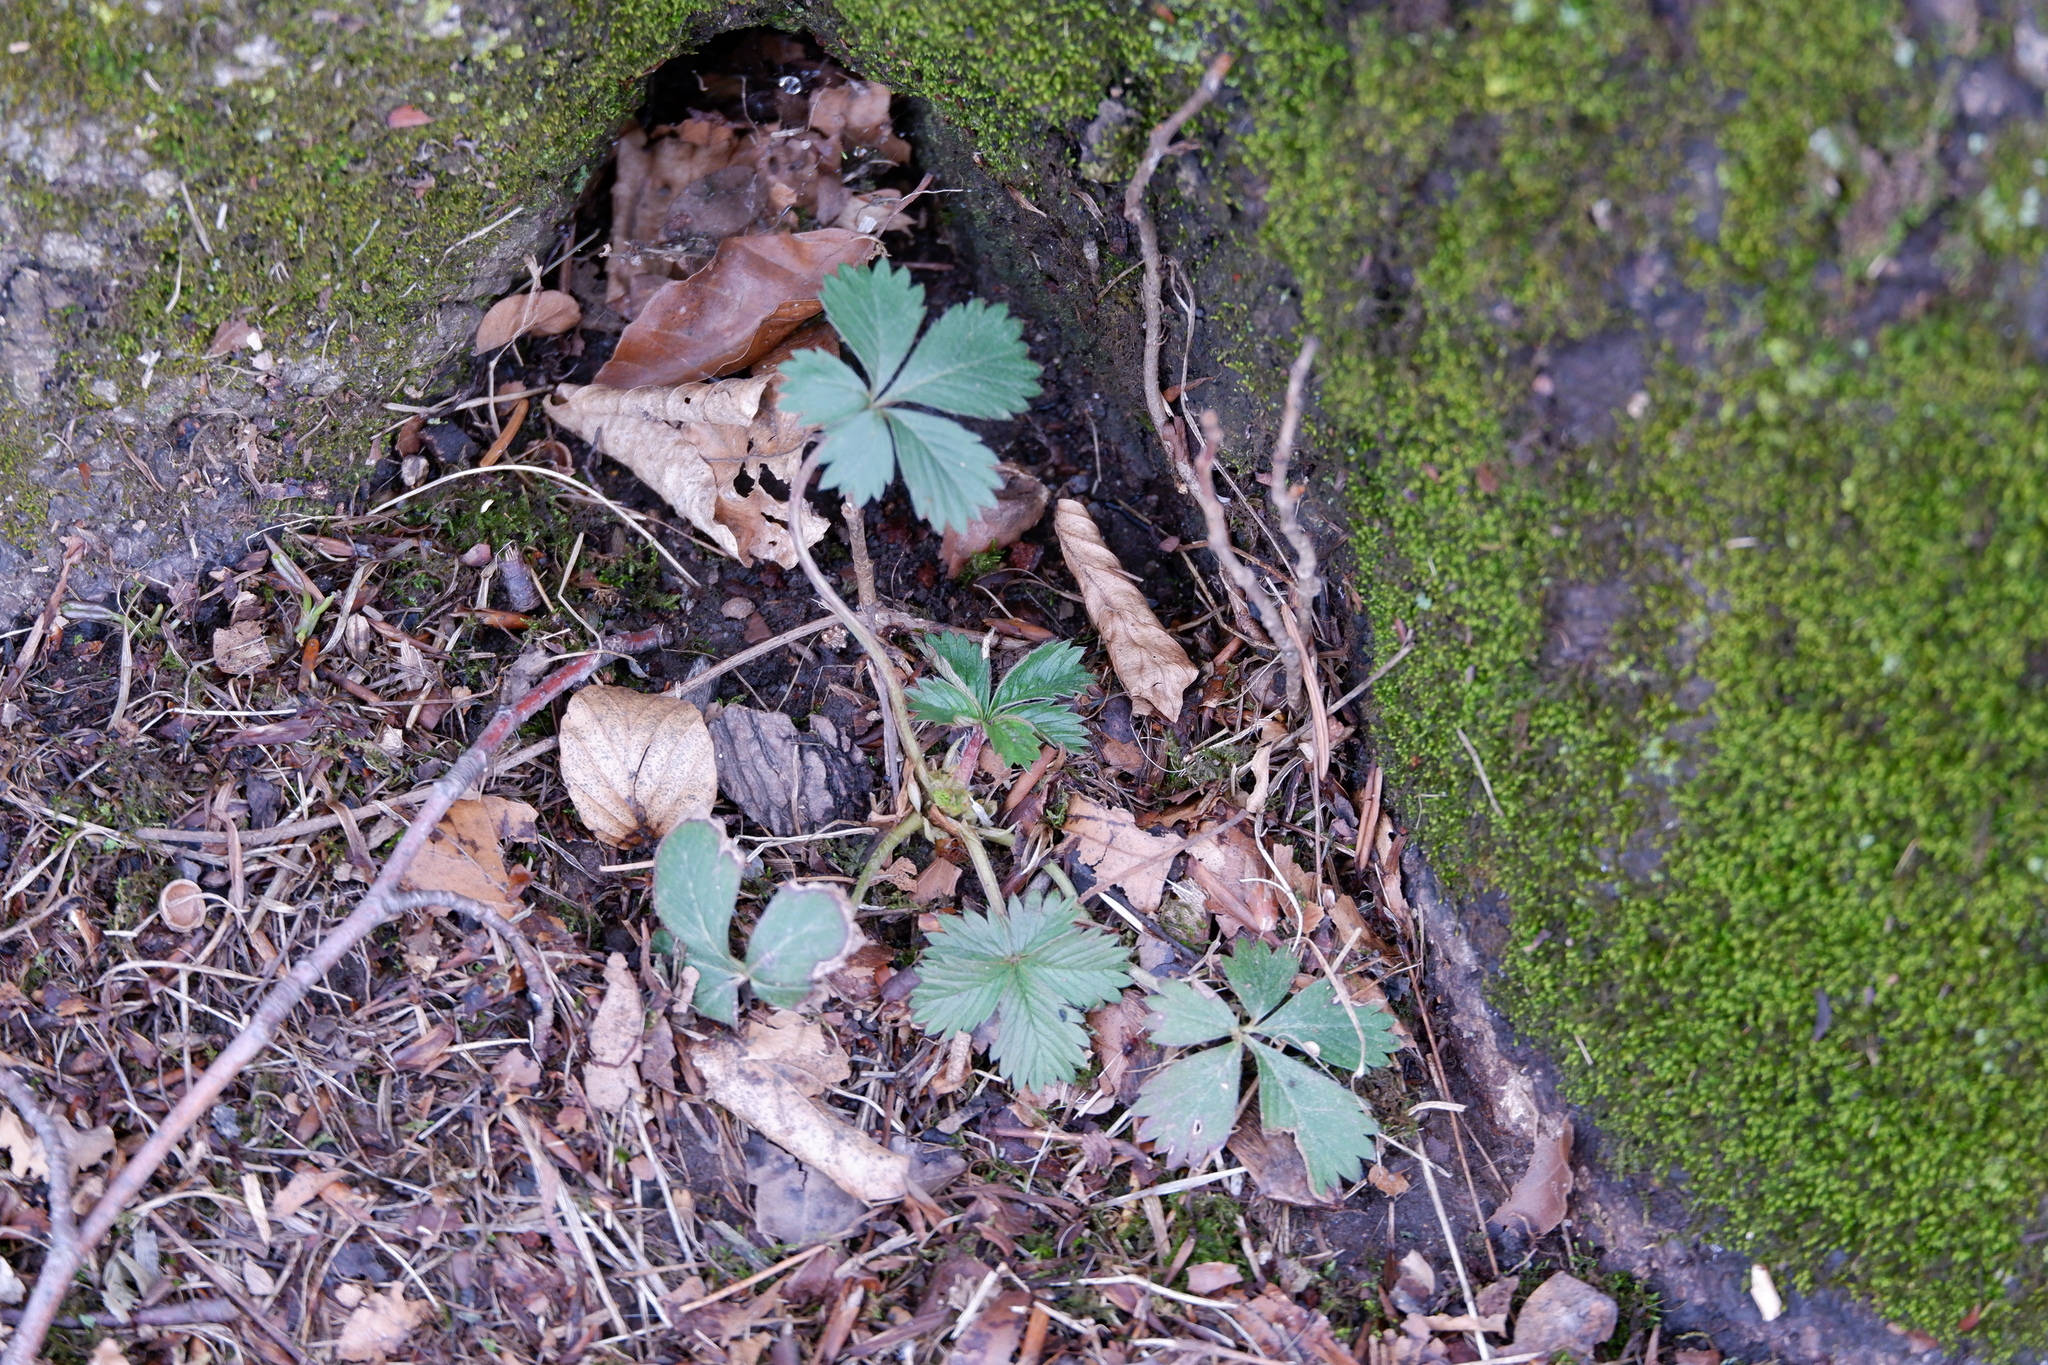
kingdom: Plantae
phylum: Tracheophyta
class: Magnoliopsida
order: Rosales
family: Rosaceae
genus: Potentilla
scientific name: Potentilla canadensis
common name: Canada cinquefoil
